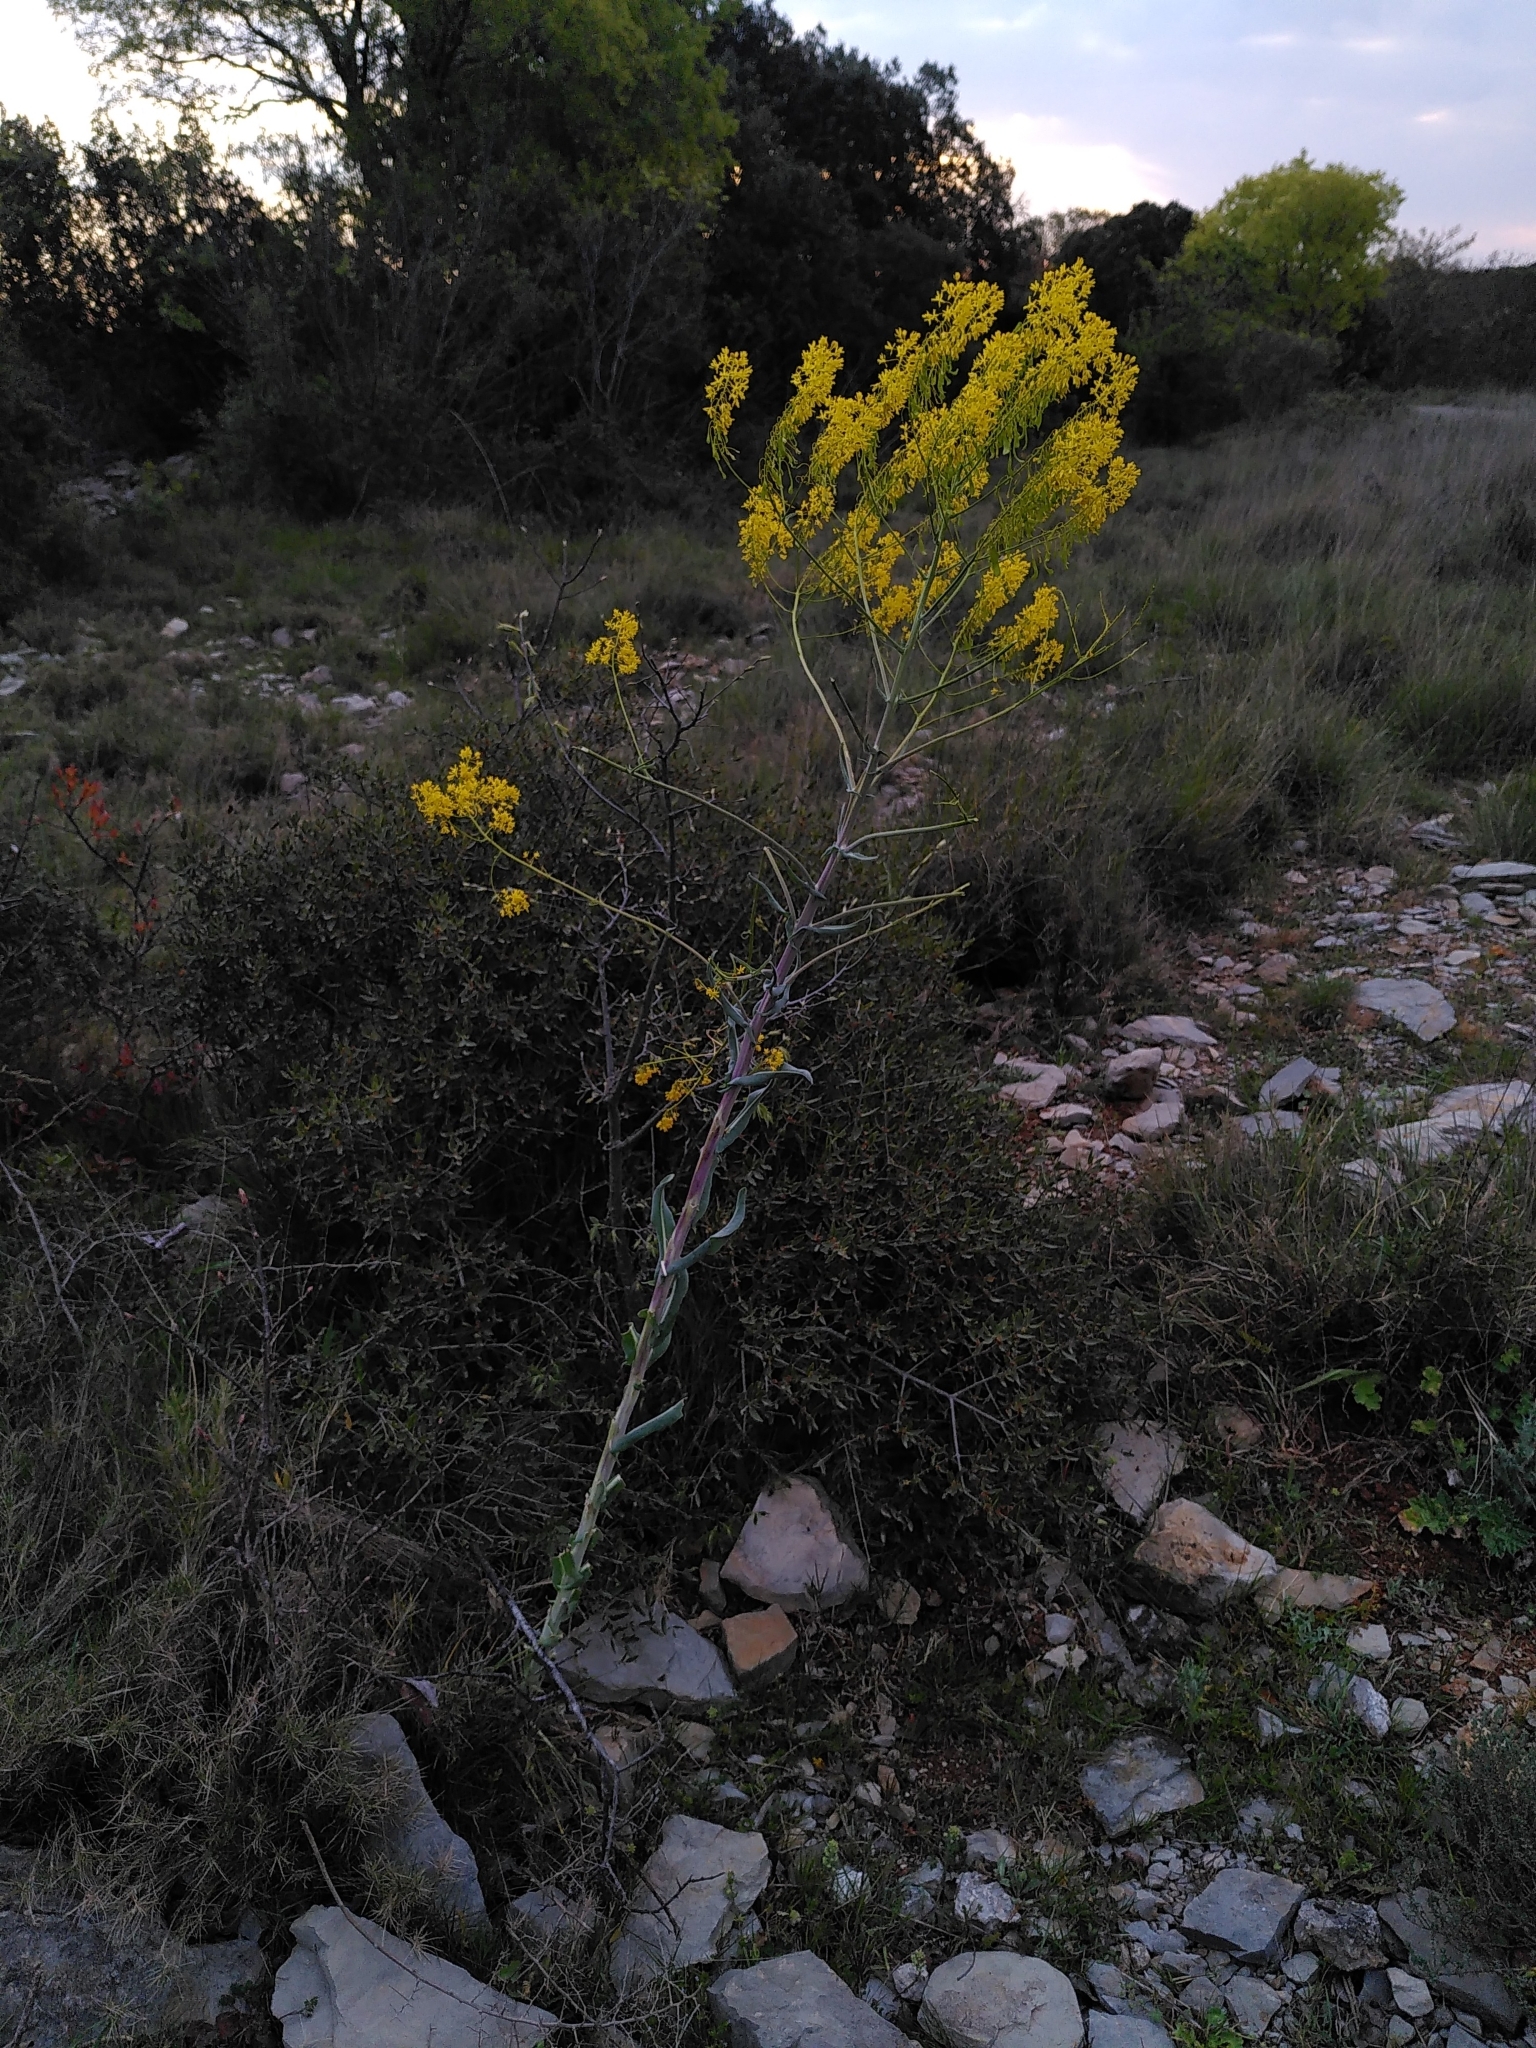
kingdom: Plantae
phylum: Tracheophyta
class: Magnoliopsida
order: Brassicales
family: Brassicaceae
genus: Isatis
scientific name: Isatis tinctoria
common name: Woad
